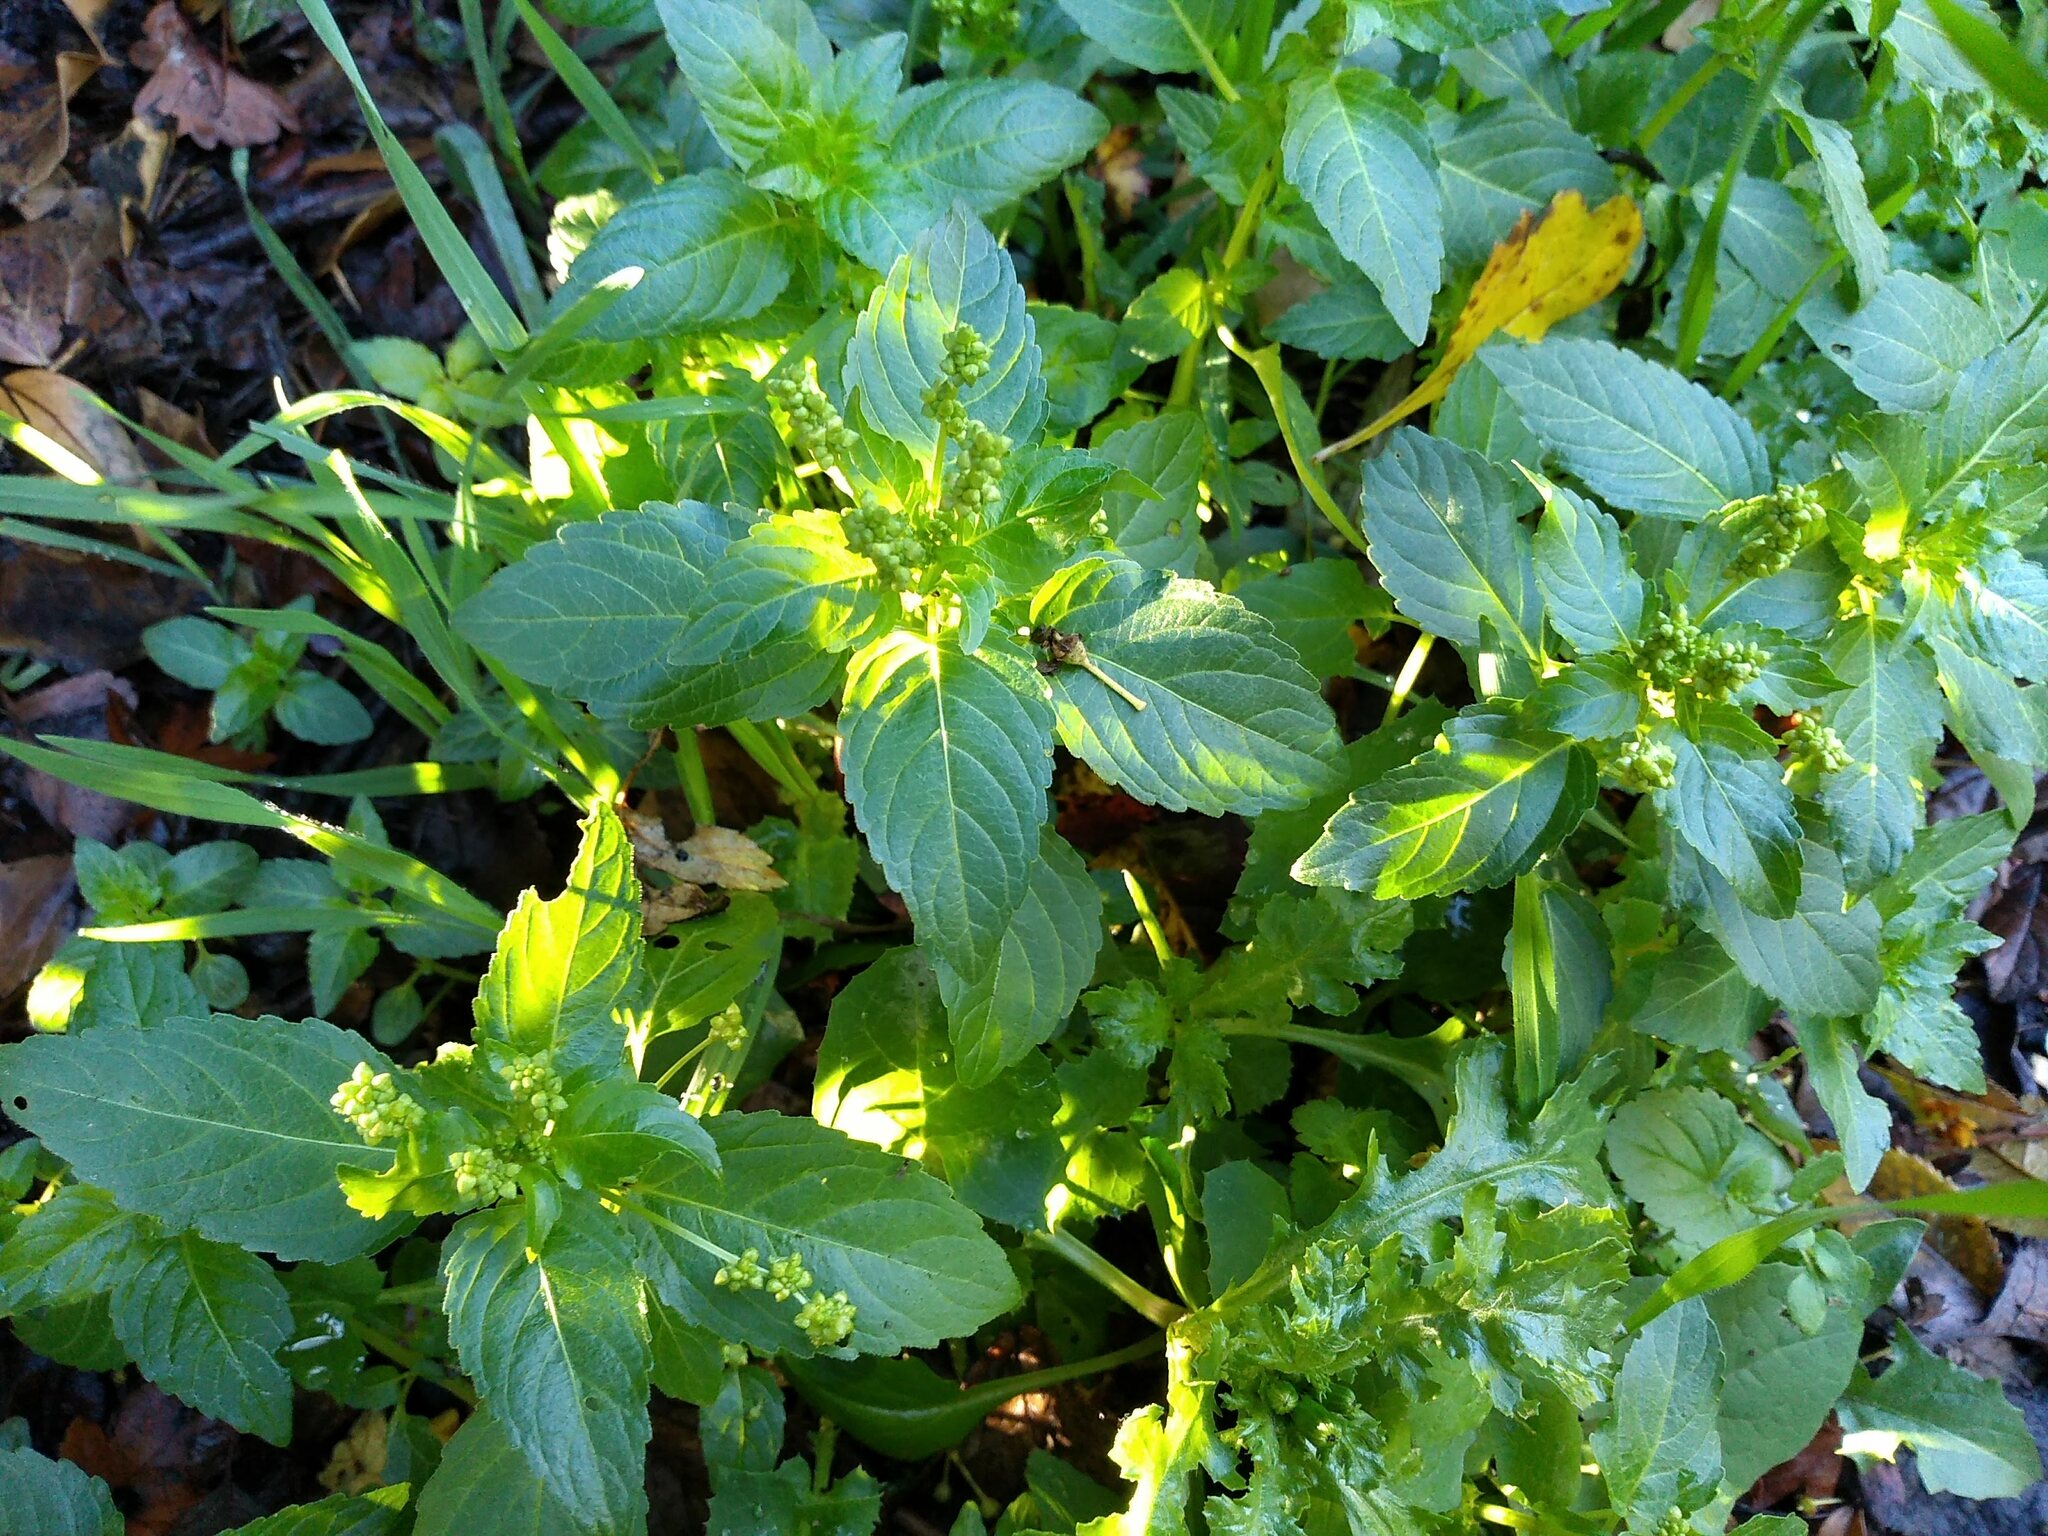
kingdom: Plantae
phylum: Tracheophyta
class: Magnoliopsida
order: Malpighiales
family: Euphorbiaceae
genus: Mercurialis
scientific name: Mercurialis annua
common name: Annual mercury
